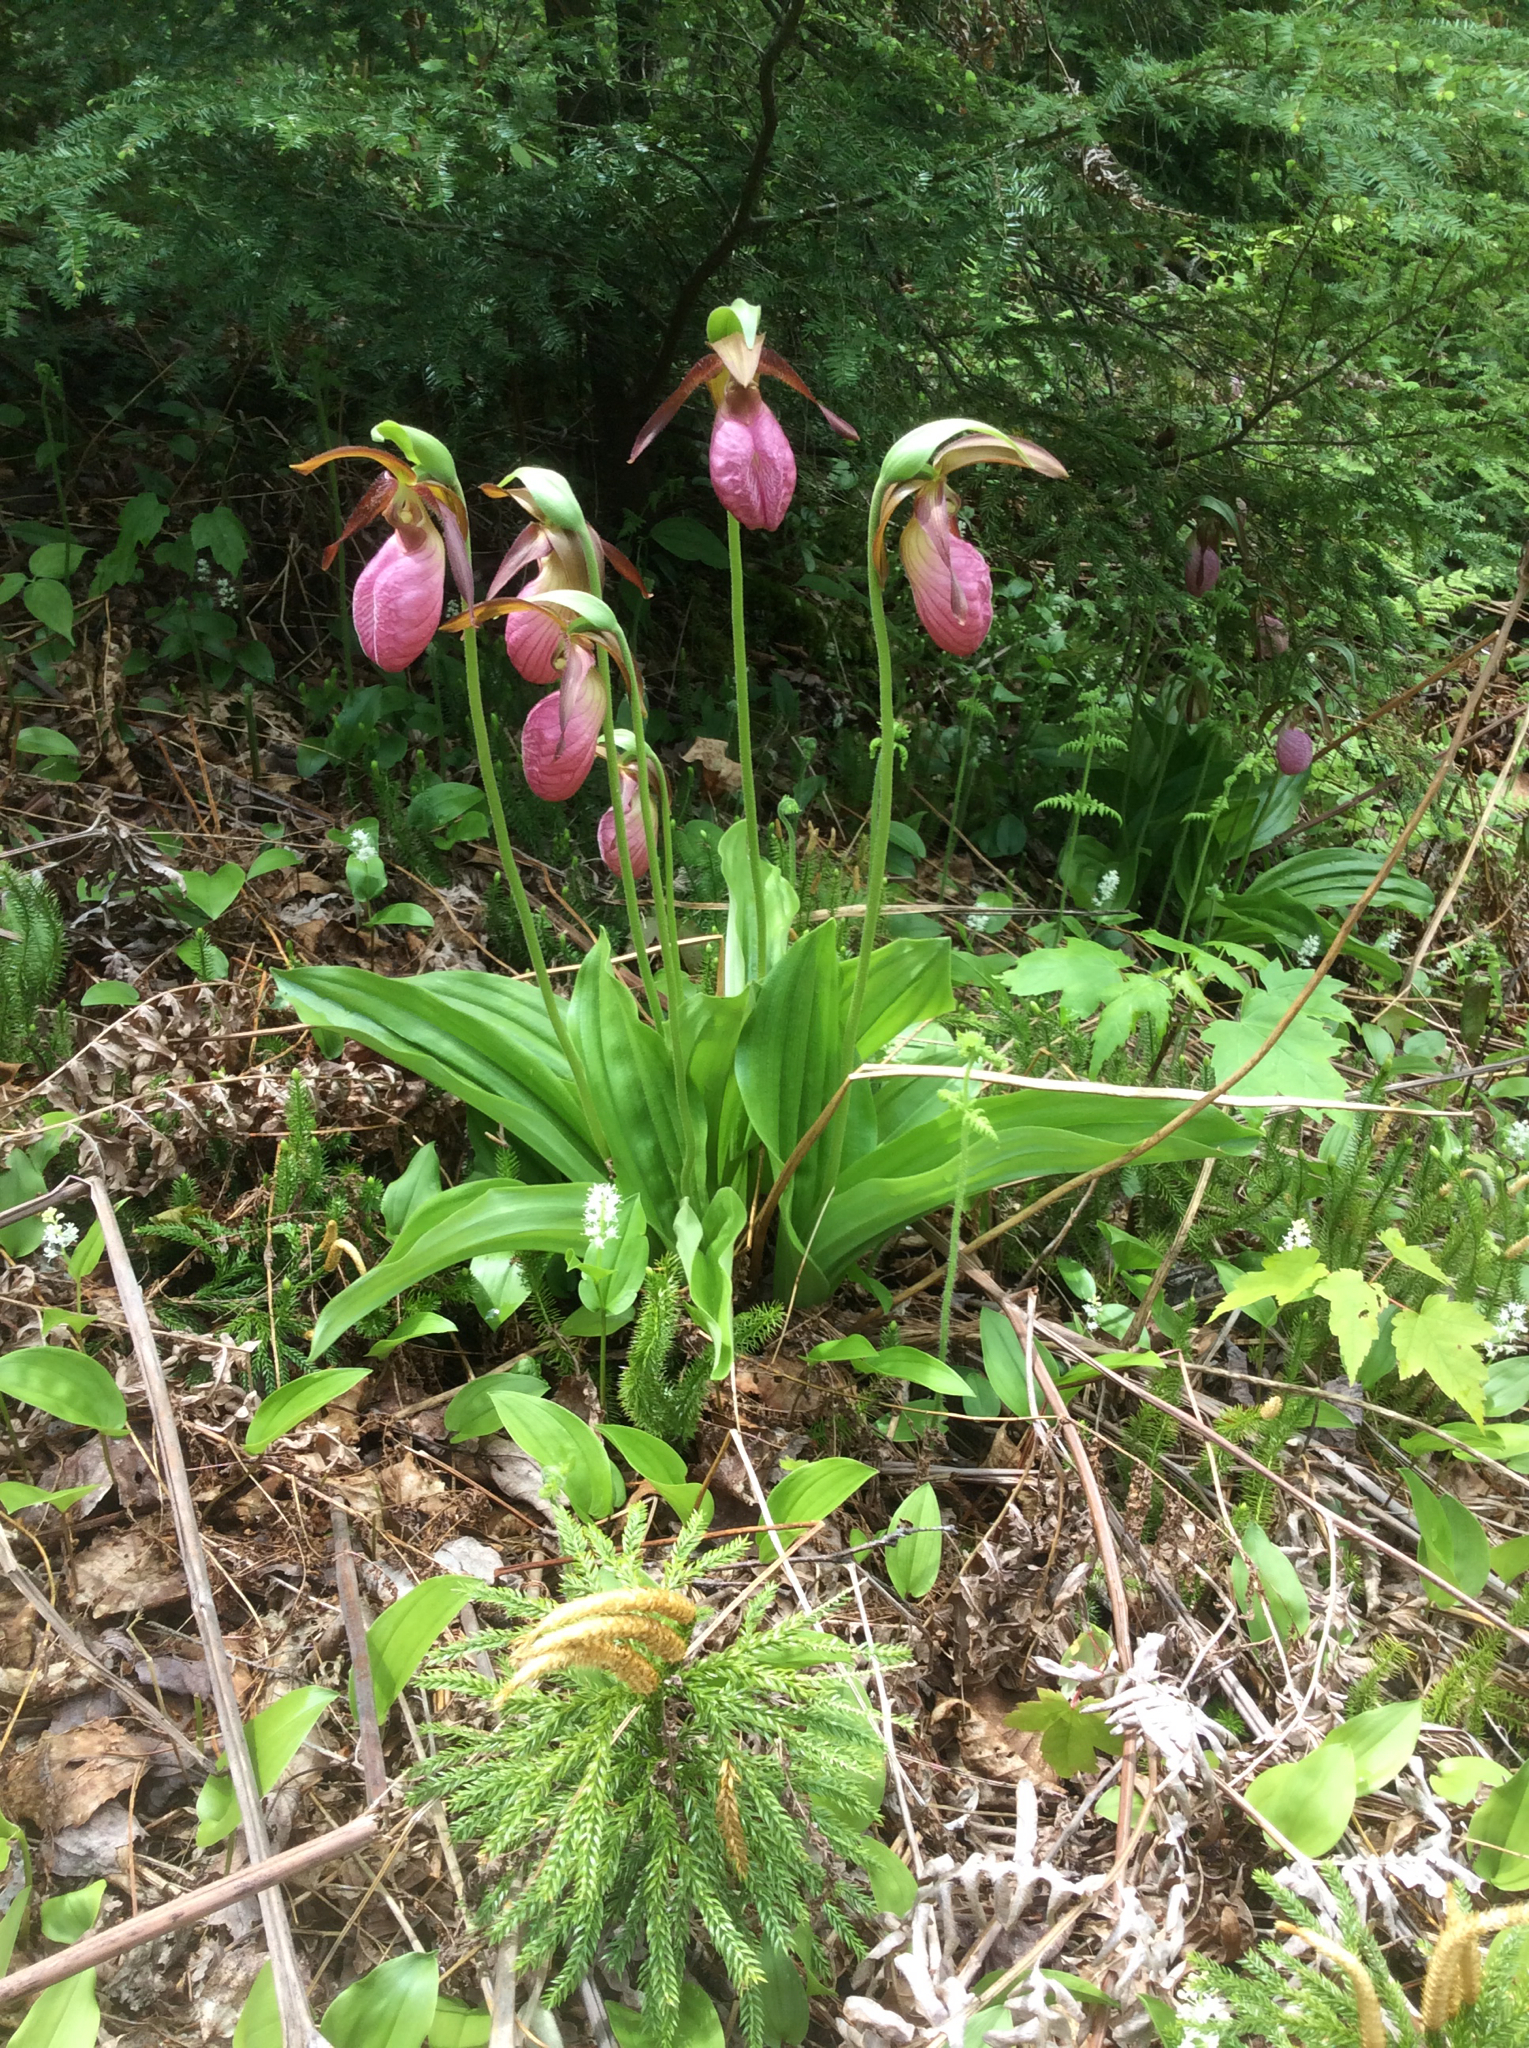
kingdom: Plantae
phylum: Tracheophyta
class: Liliopsida
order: Asparagales
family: Orchidaceae
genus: Cypripedium
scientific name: Cypripedium acaule
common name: Pink lady's-slipper
